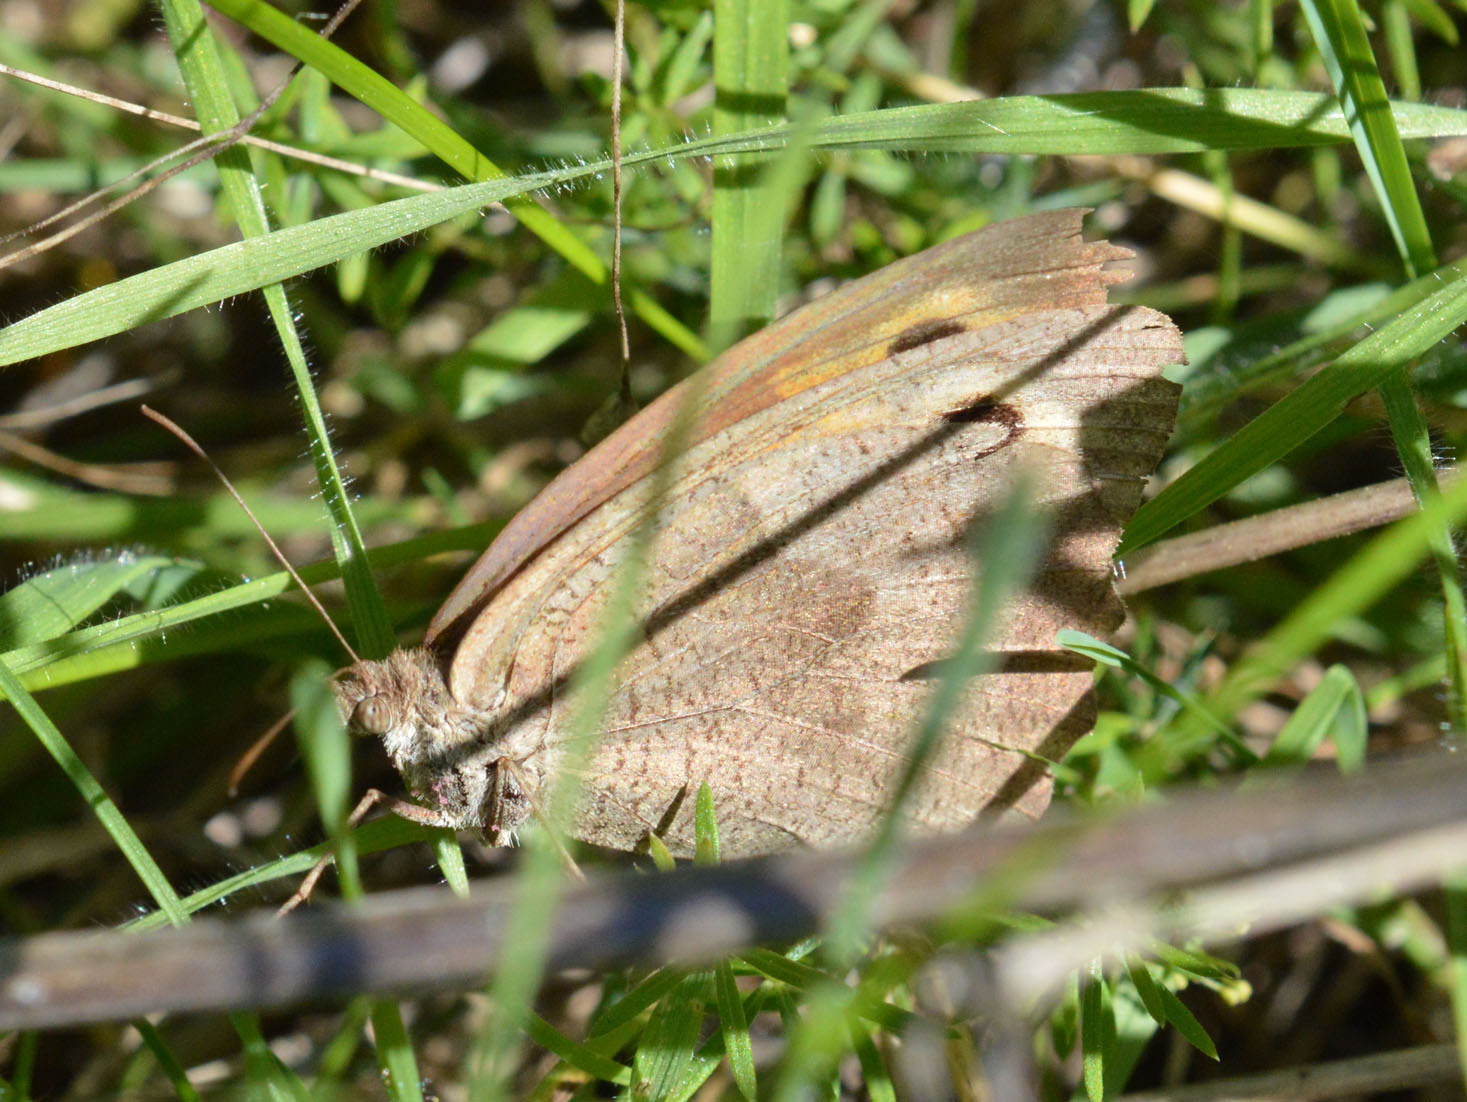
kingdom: Animalia
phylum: Arthropoda
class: Insecta
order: Lepidoptera
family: Nymphalidae
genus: Maniola
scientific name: Maniola jurtina
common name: Meadow brown
